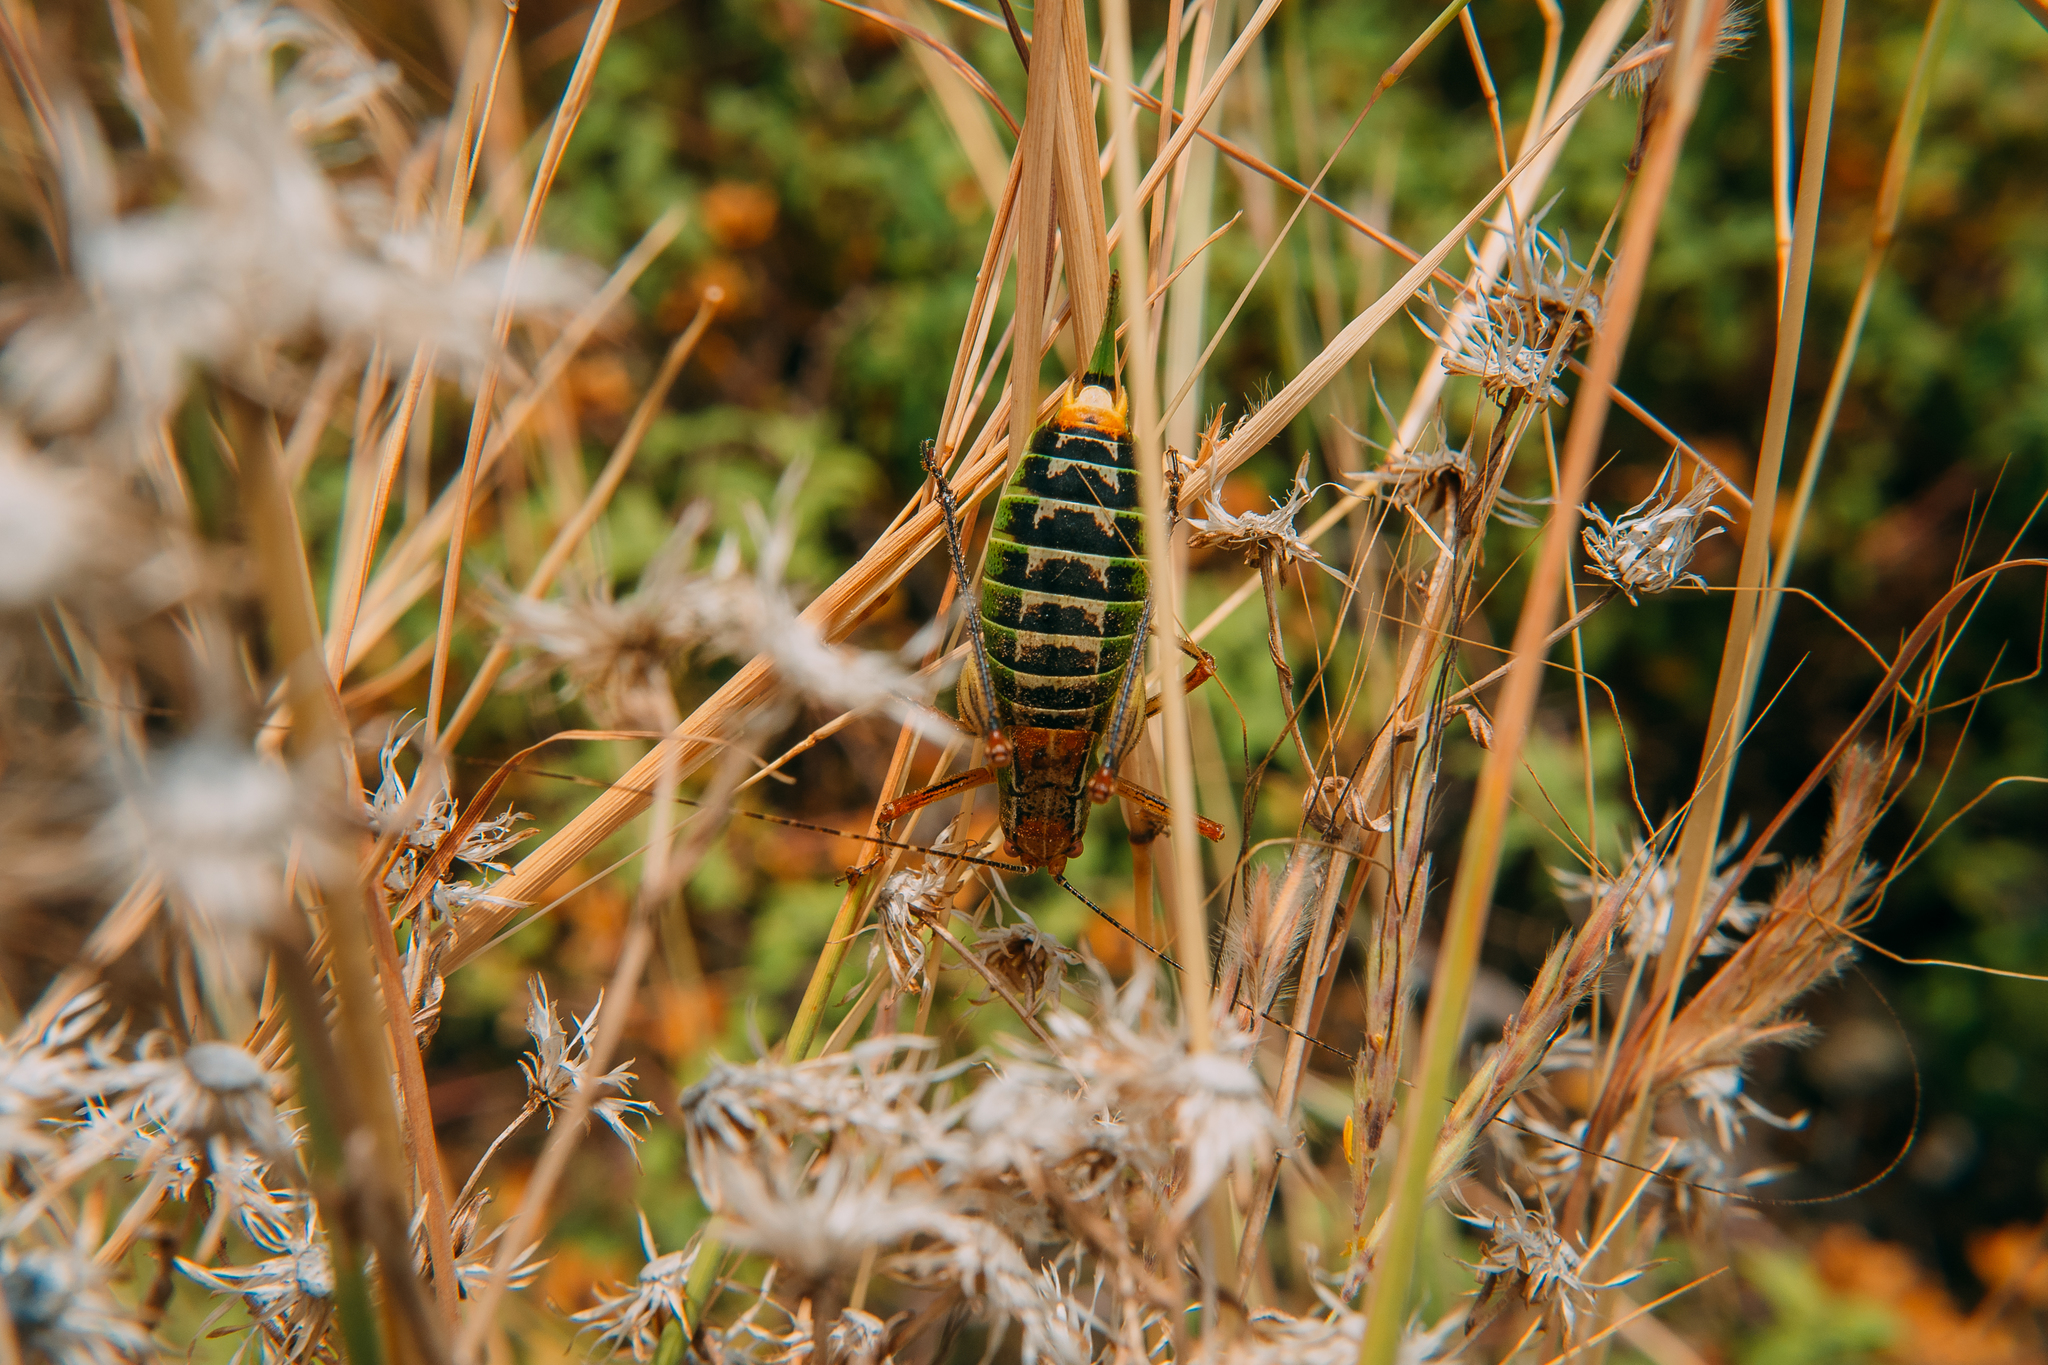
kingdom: Animalia
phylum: Arthropoda
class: Insecta
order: Orthoptera
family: Tettigoniidae
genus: Barbitistes
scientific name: Barbitistes constrictus
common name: Eastern saw-tailed bush cricket
